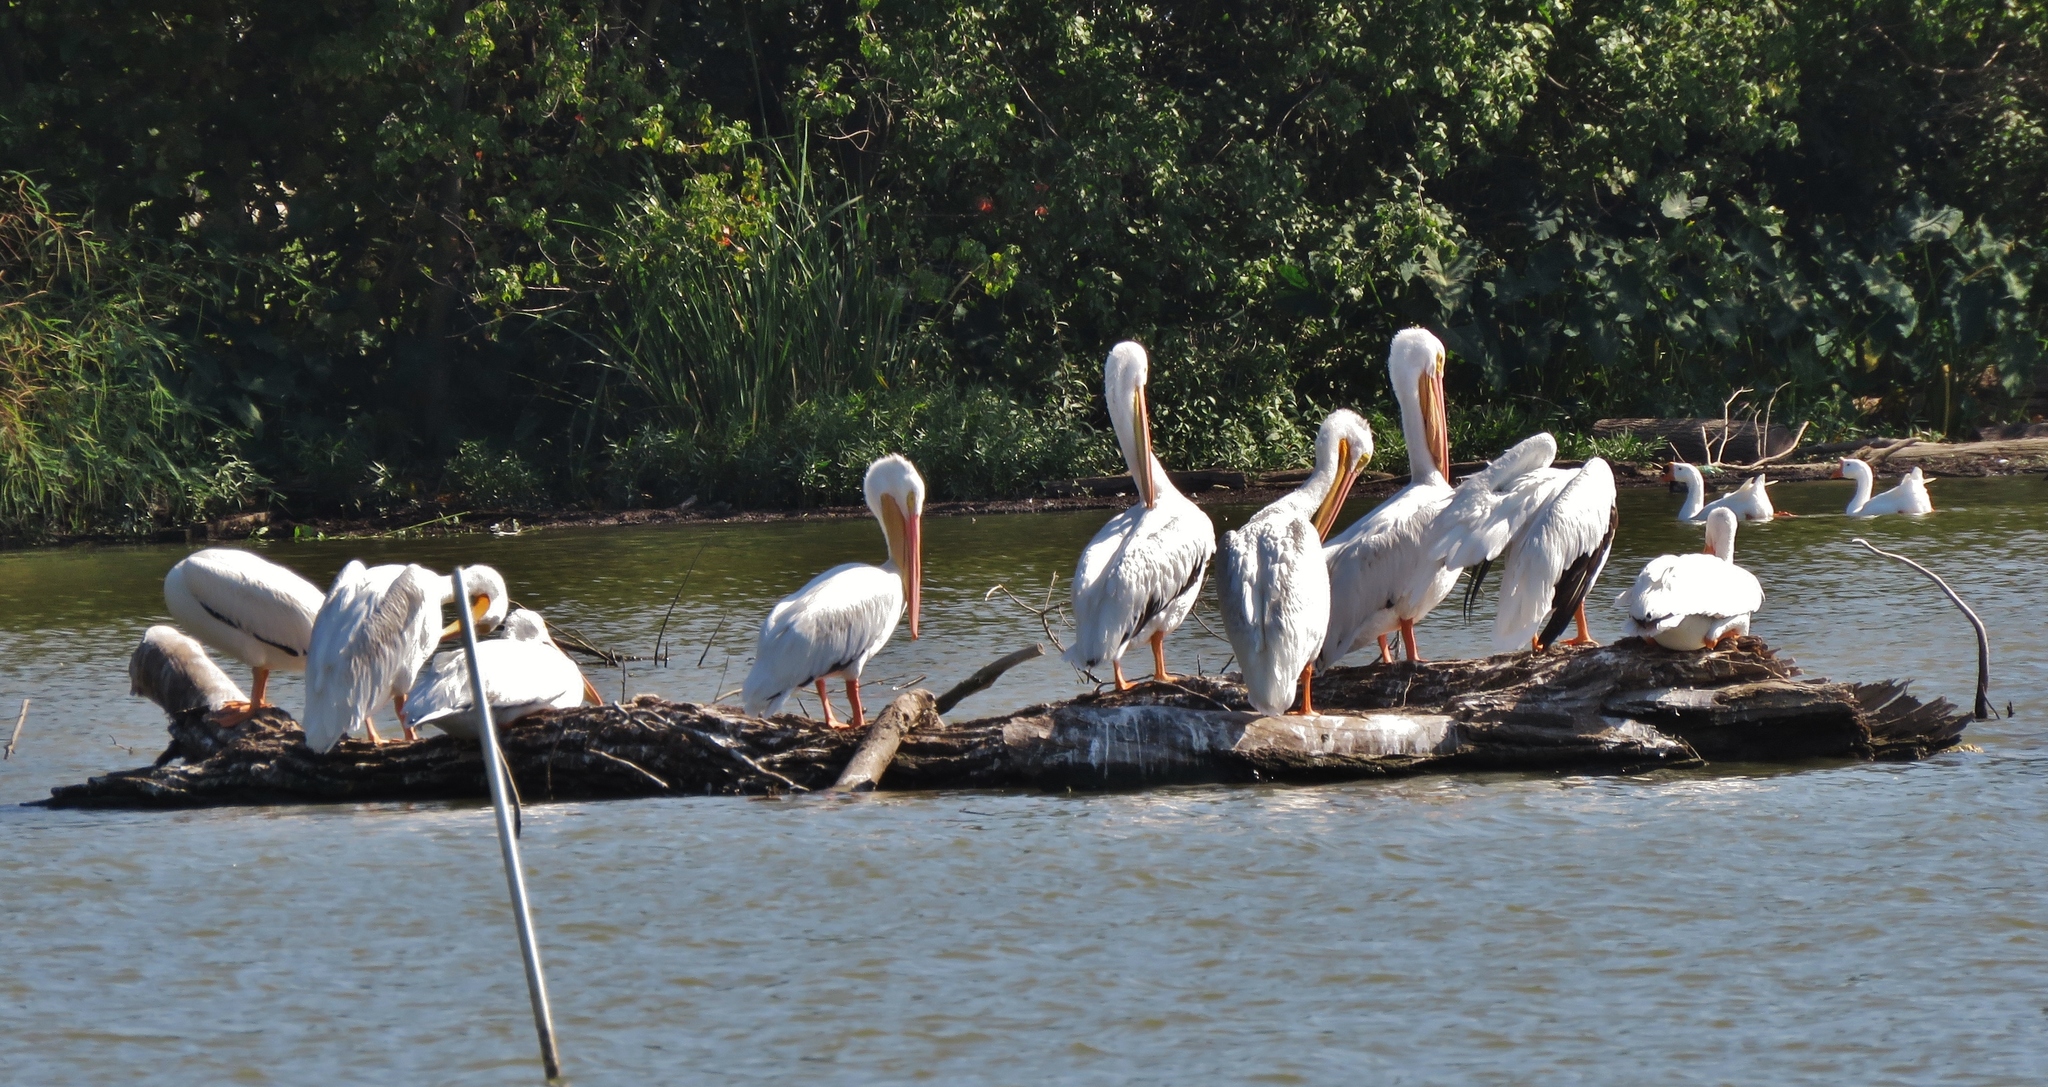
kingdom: Animalia
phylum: Chordata
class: Aves
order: Pelecaniformes
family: Pelecanidae
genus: Pelecanus
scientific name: Pelecanus erythrorhynchos
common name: American white pelican
